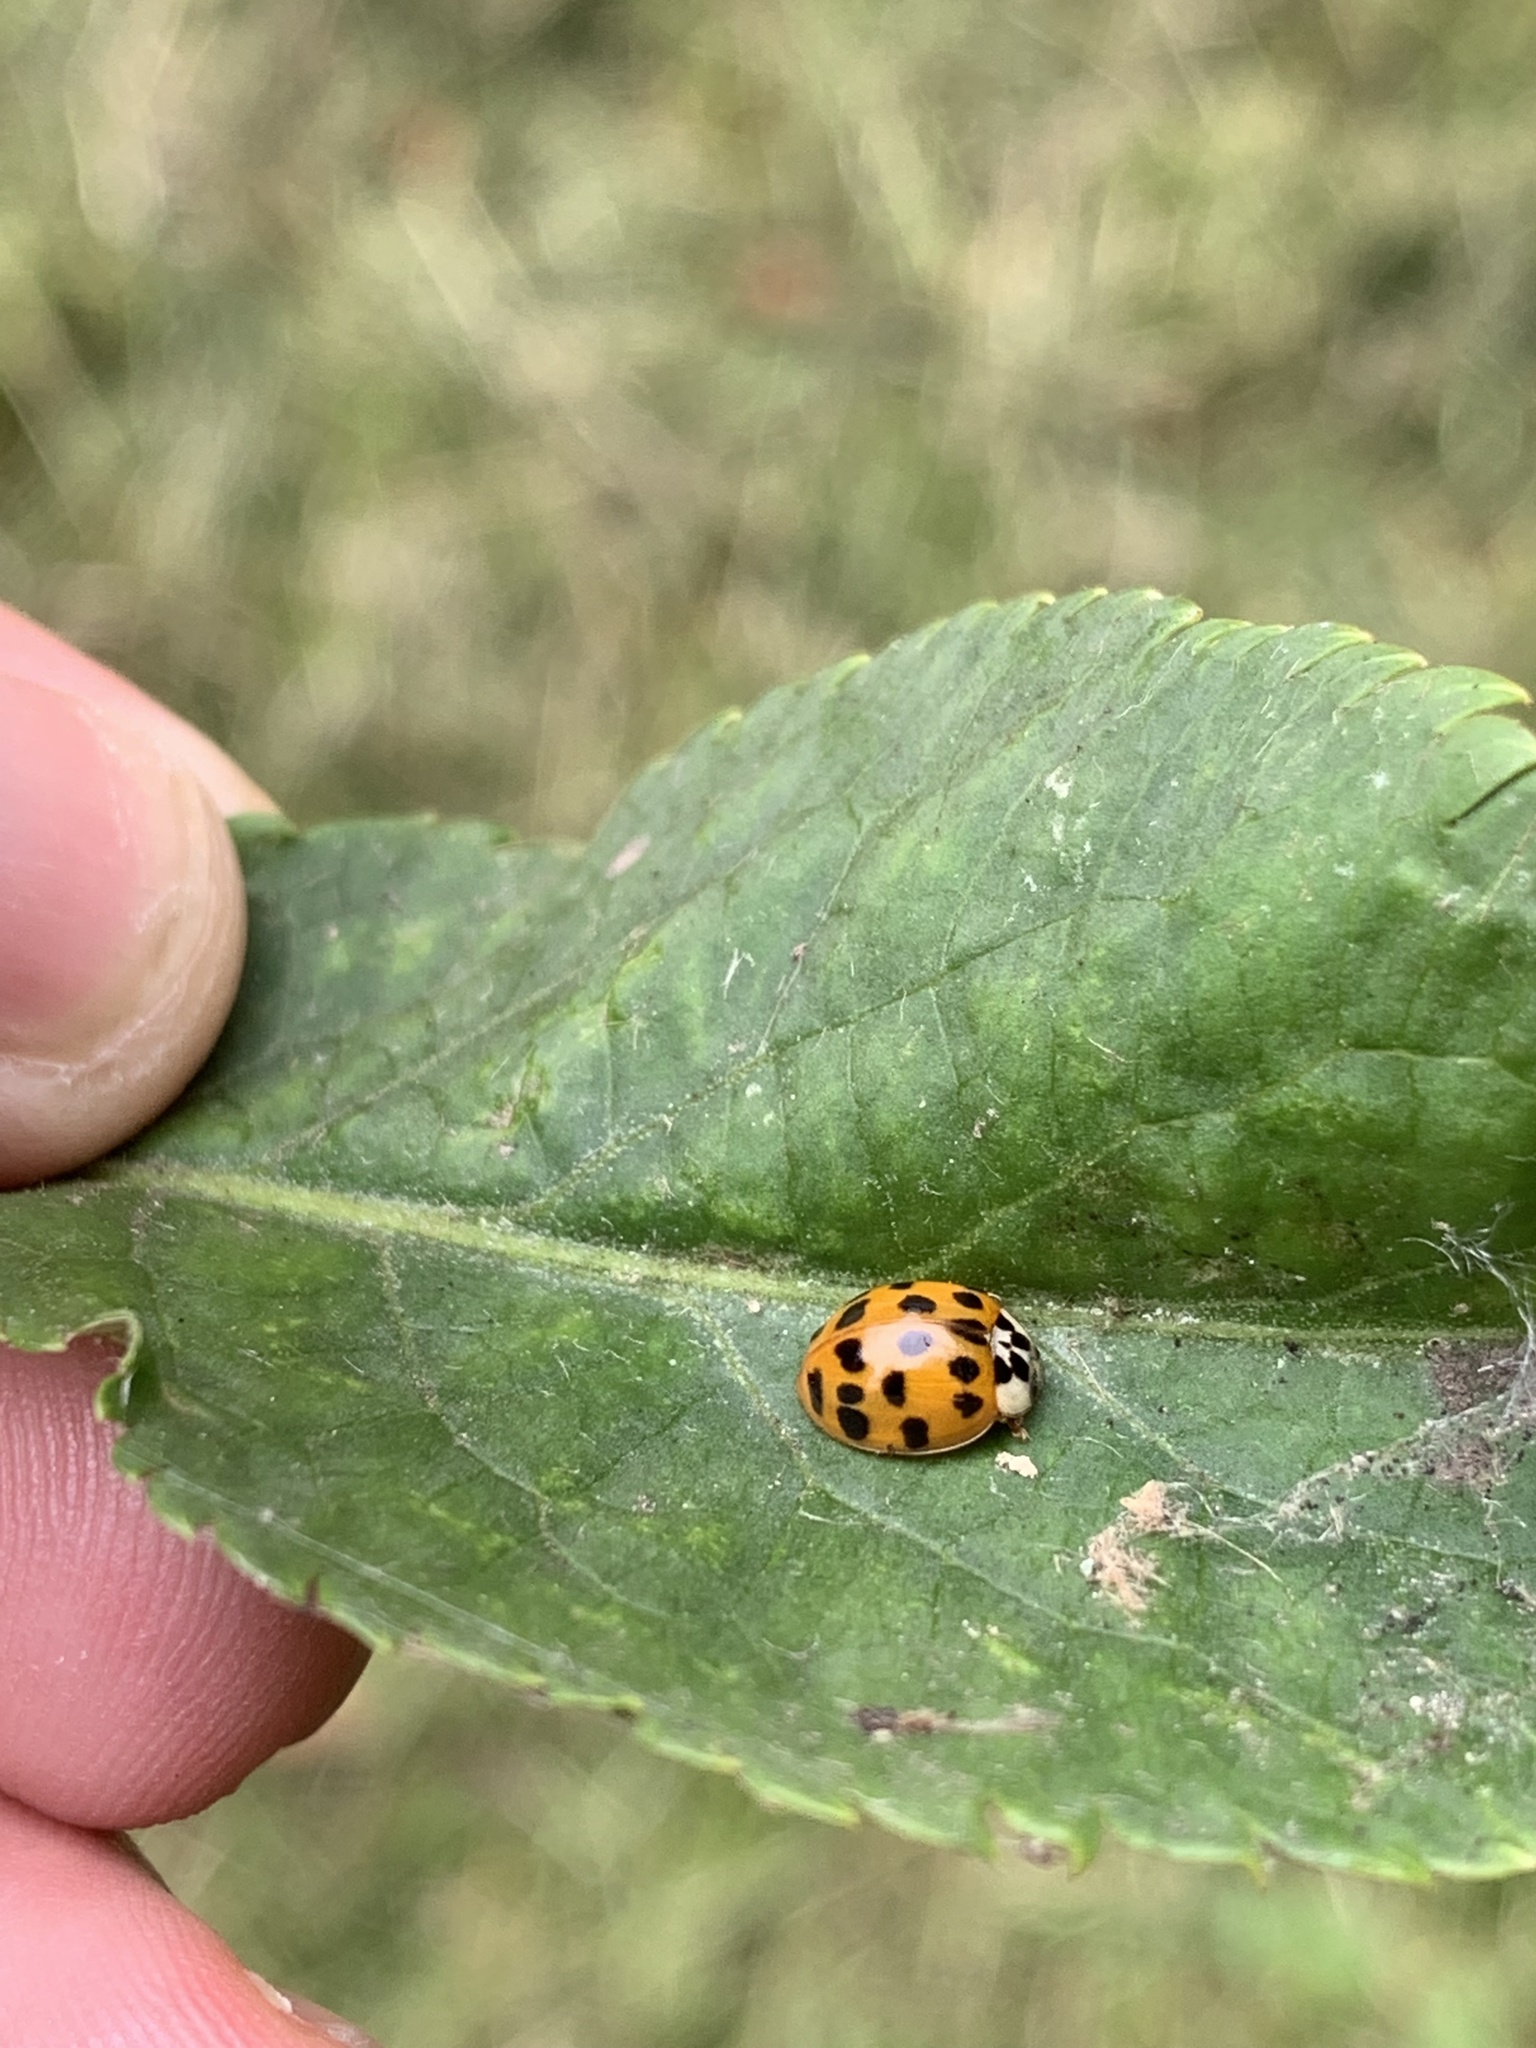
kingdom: Animalia
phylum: Arthropoda
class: Insecta
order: Coleoptera
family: Coccinellidae
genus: Harmonia
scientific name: Harmonia axyridis
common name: Harlequin ladybird
